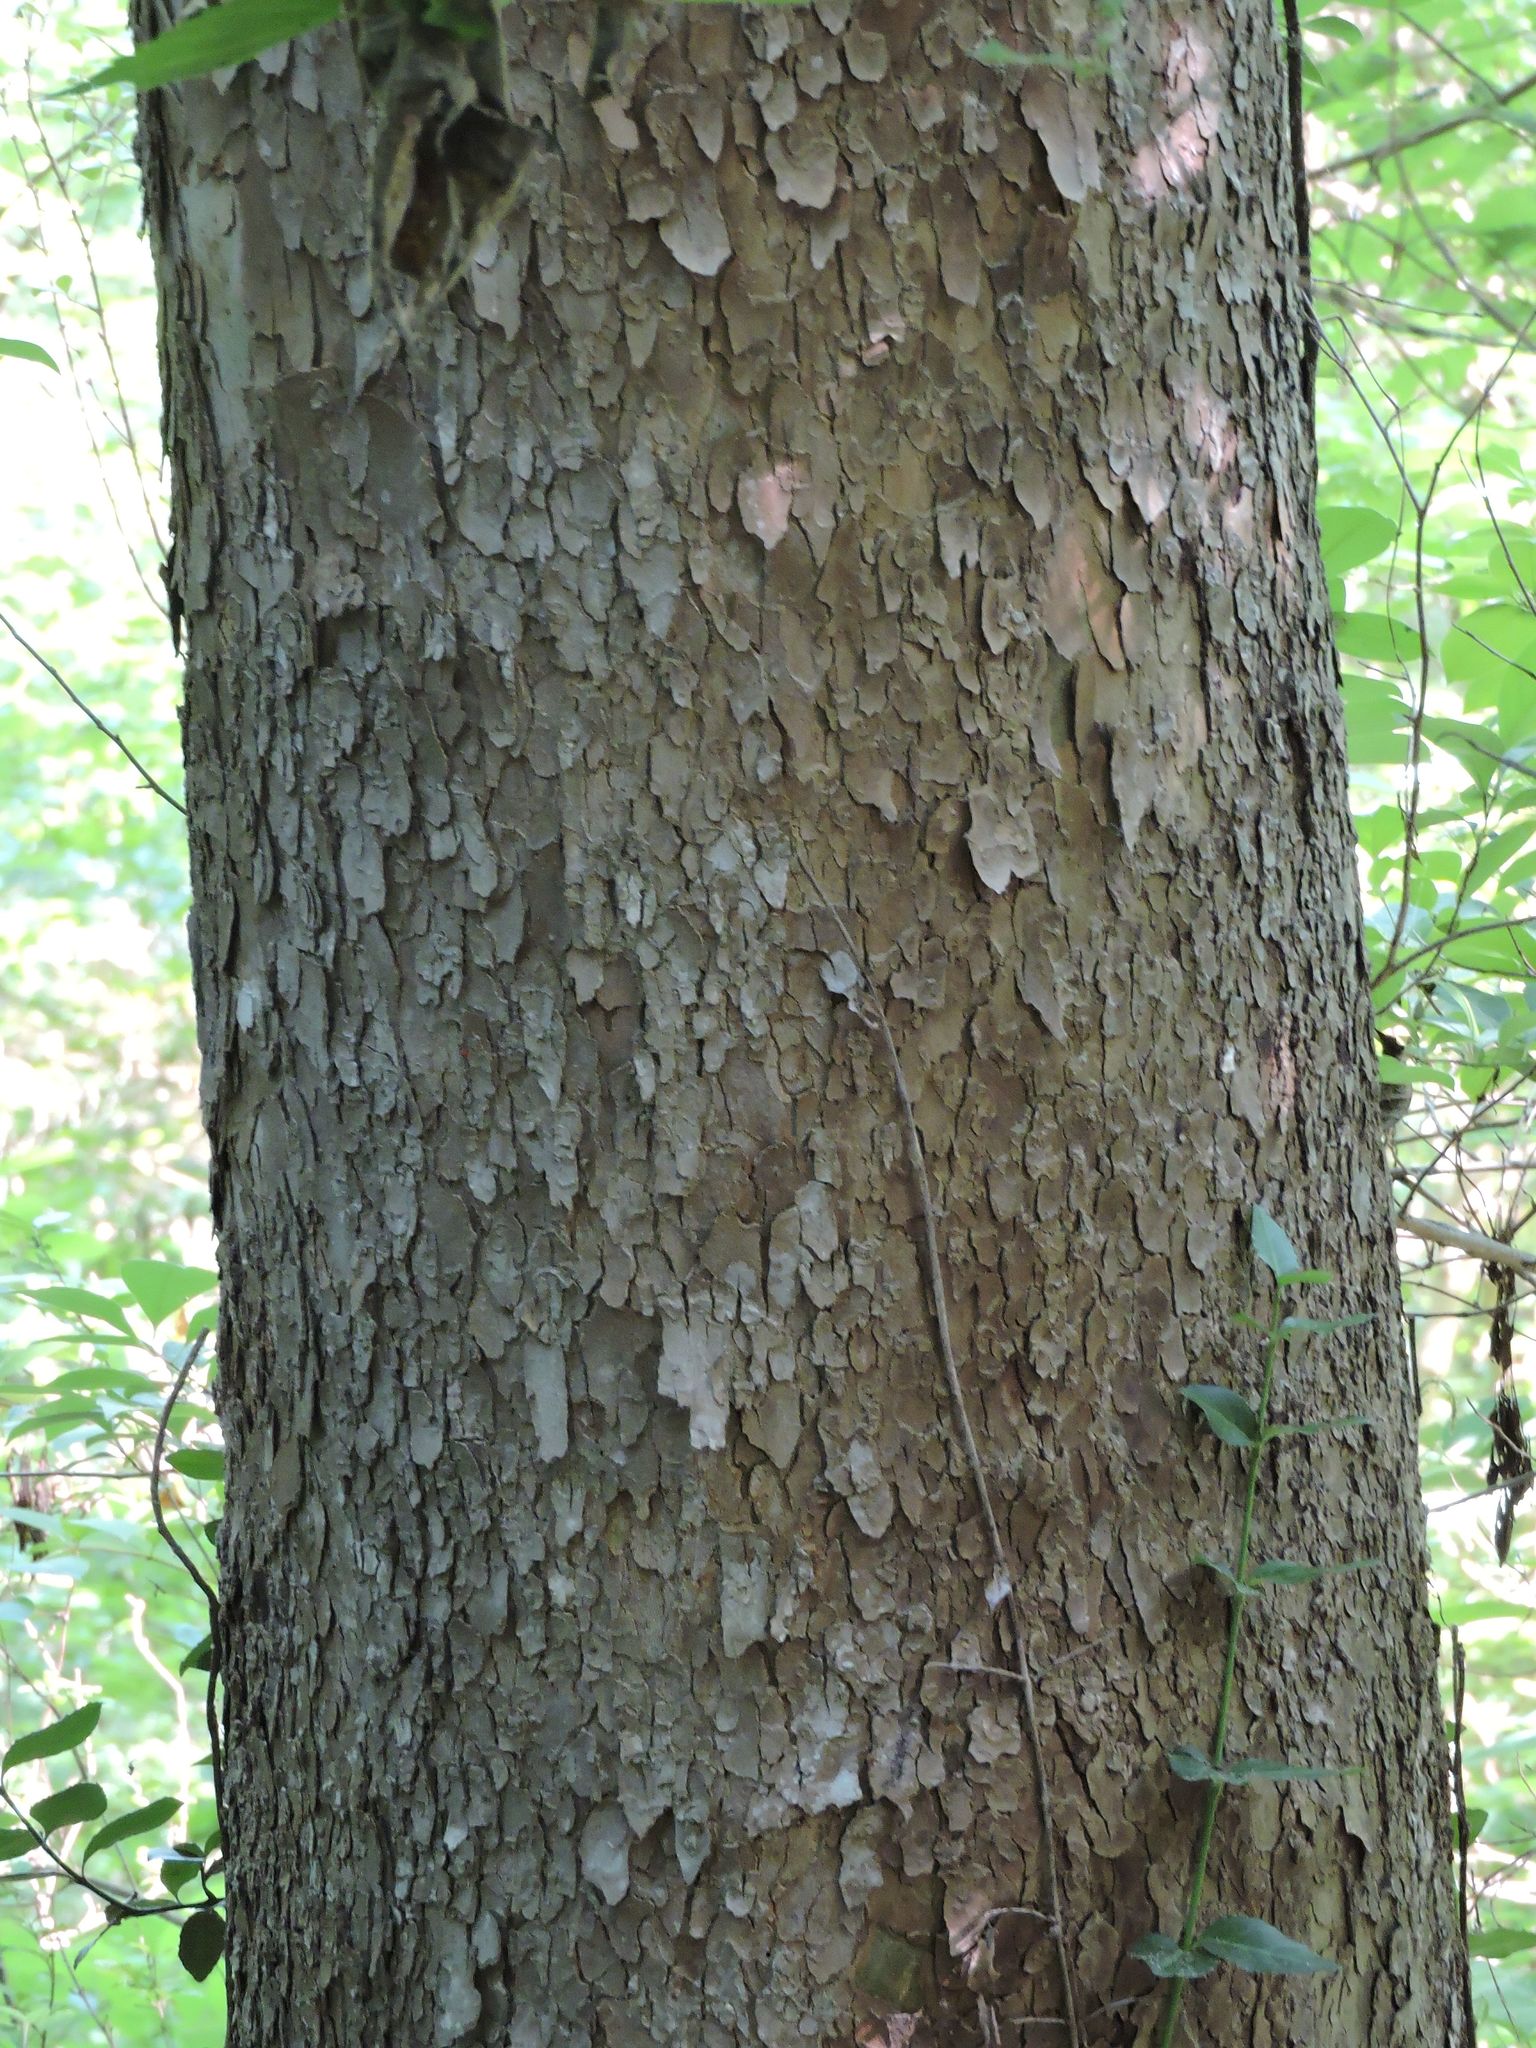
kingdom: Plantae
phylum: Tracheophyta
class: Magnoliopsida
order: Proteales
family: Platanaceae
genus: Platanus
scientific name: Platanus occidentalis
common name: American sycamore
